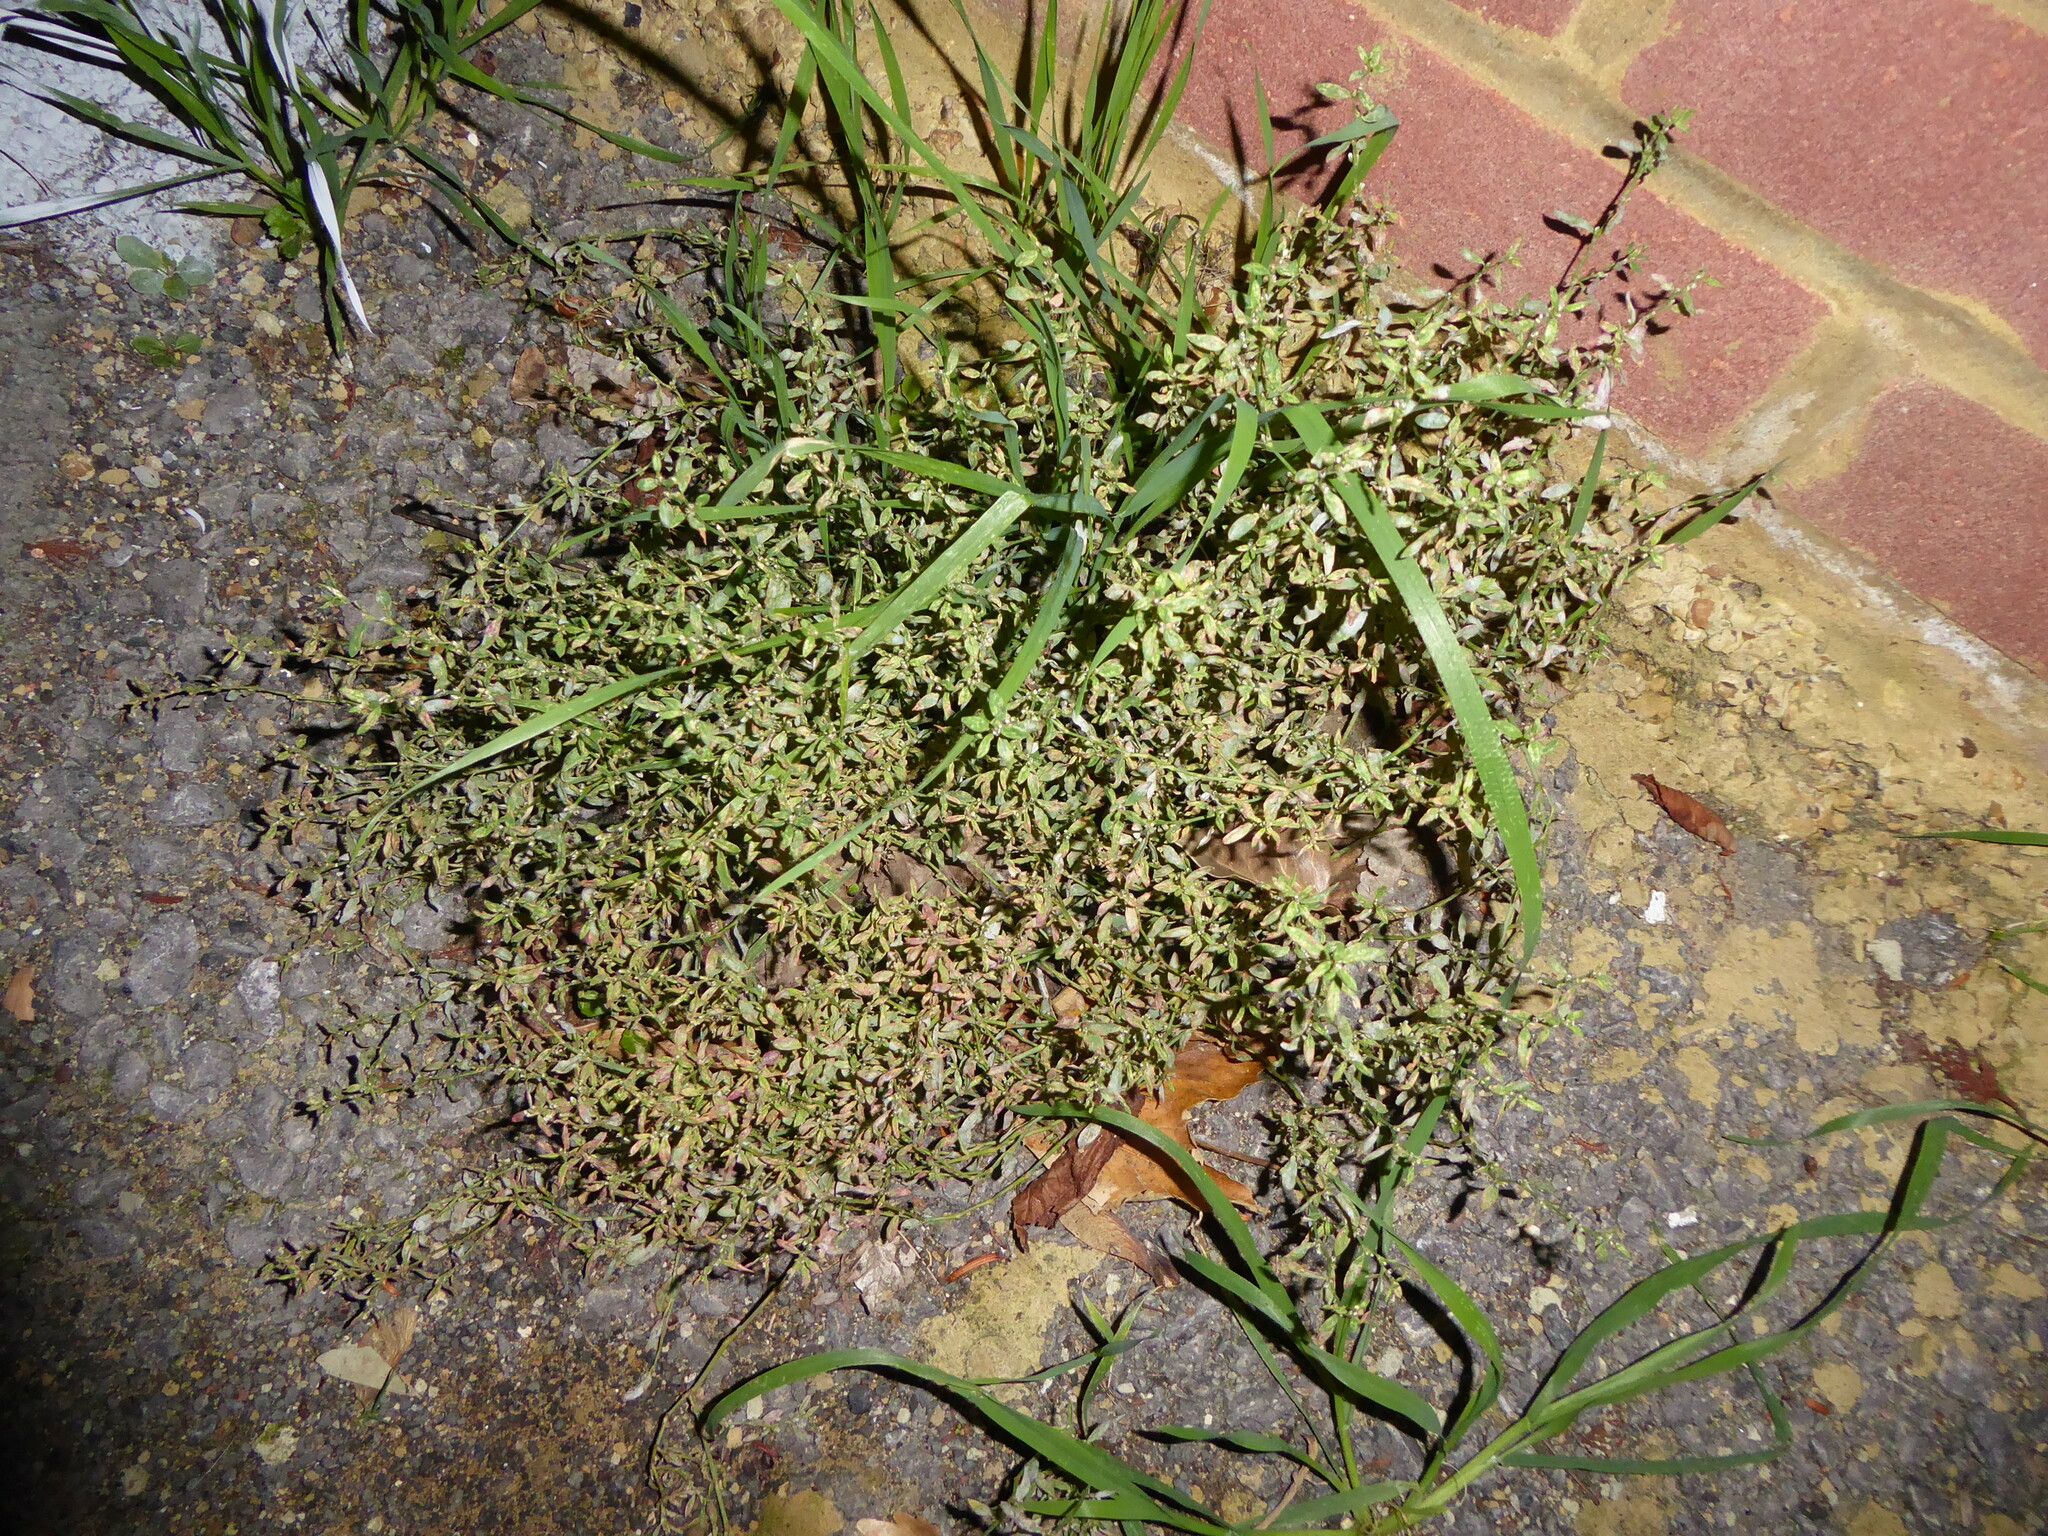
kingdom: Plantae
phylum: Tracheophyta
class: Magnoliopsida
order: Caryophyllales
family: Polygonaceae
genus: Polygonum
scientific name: Polygonum
